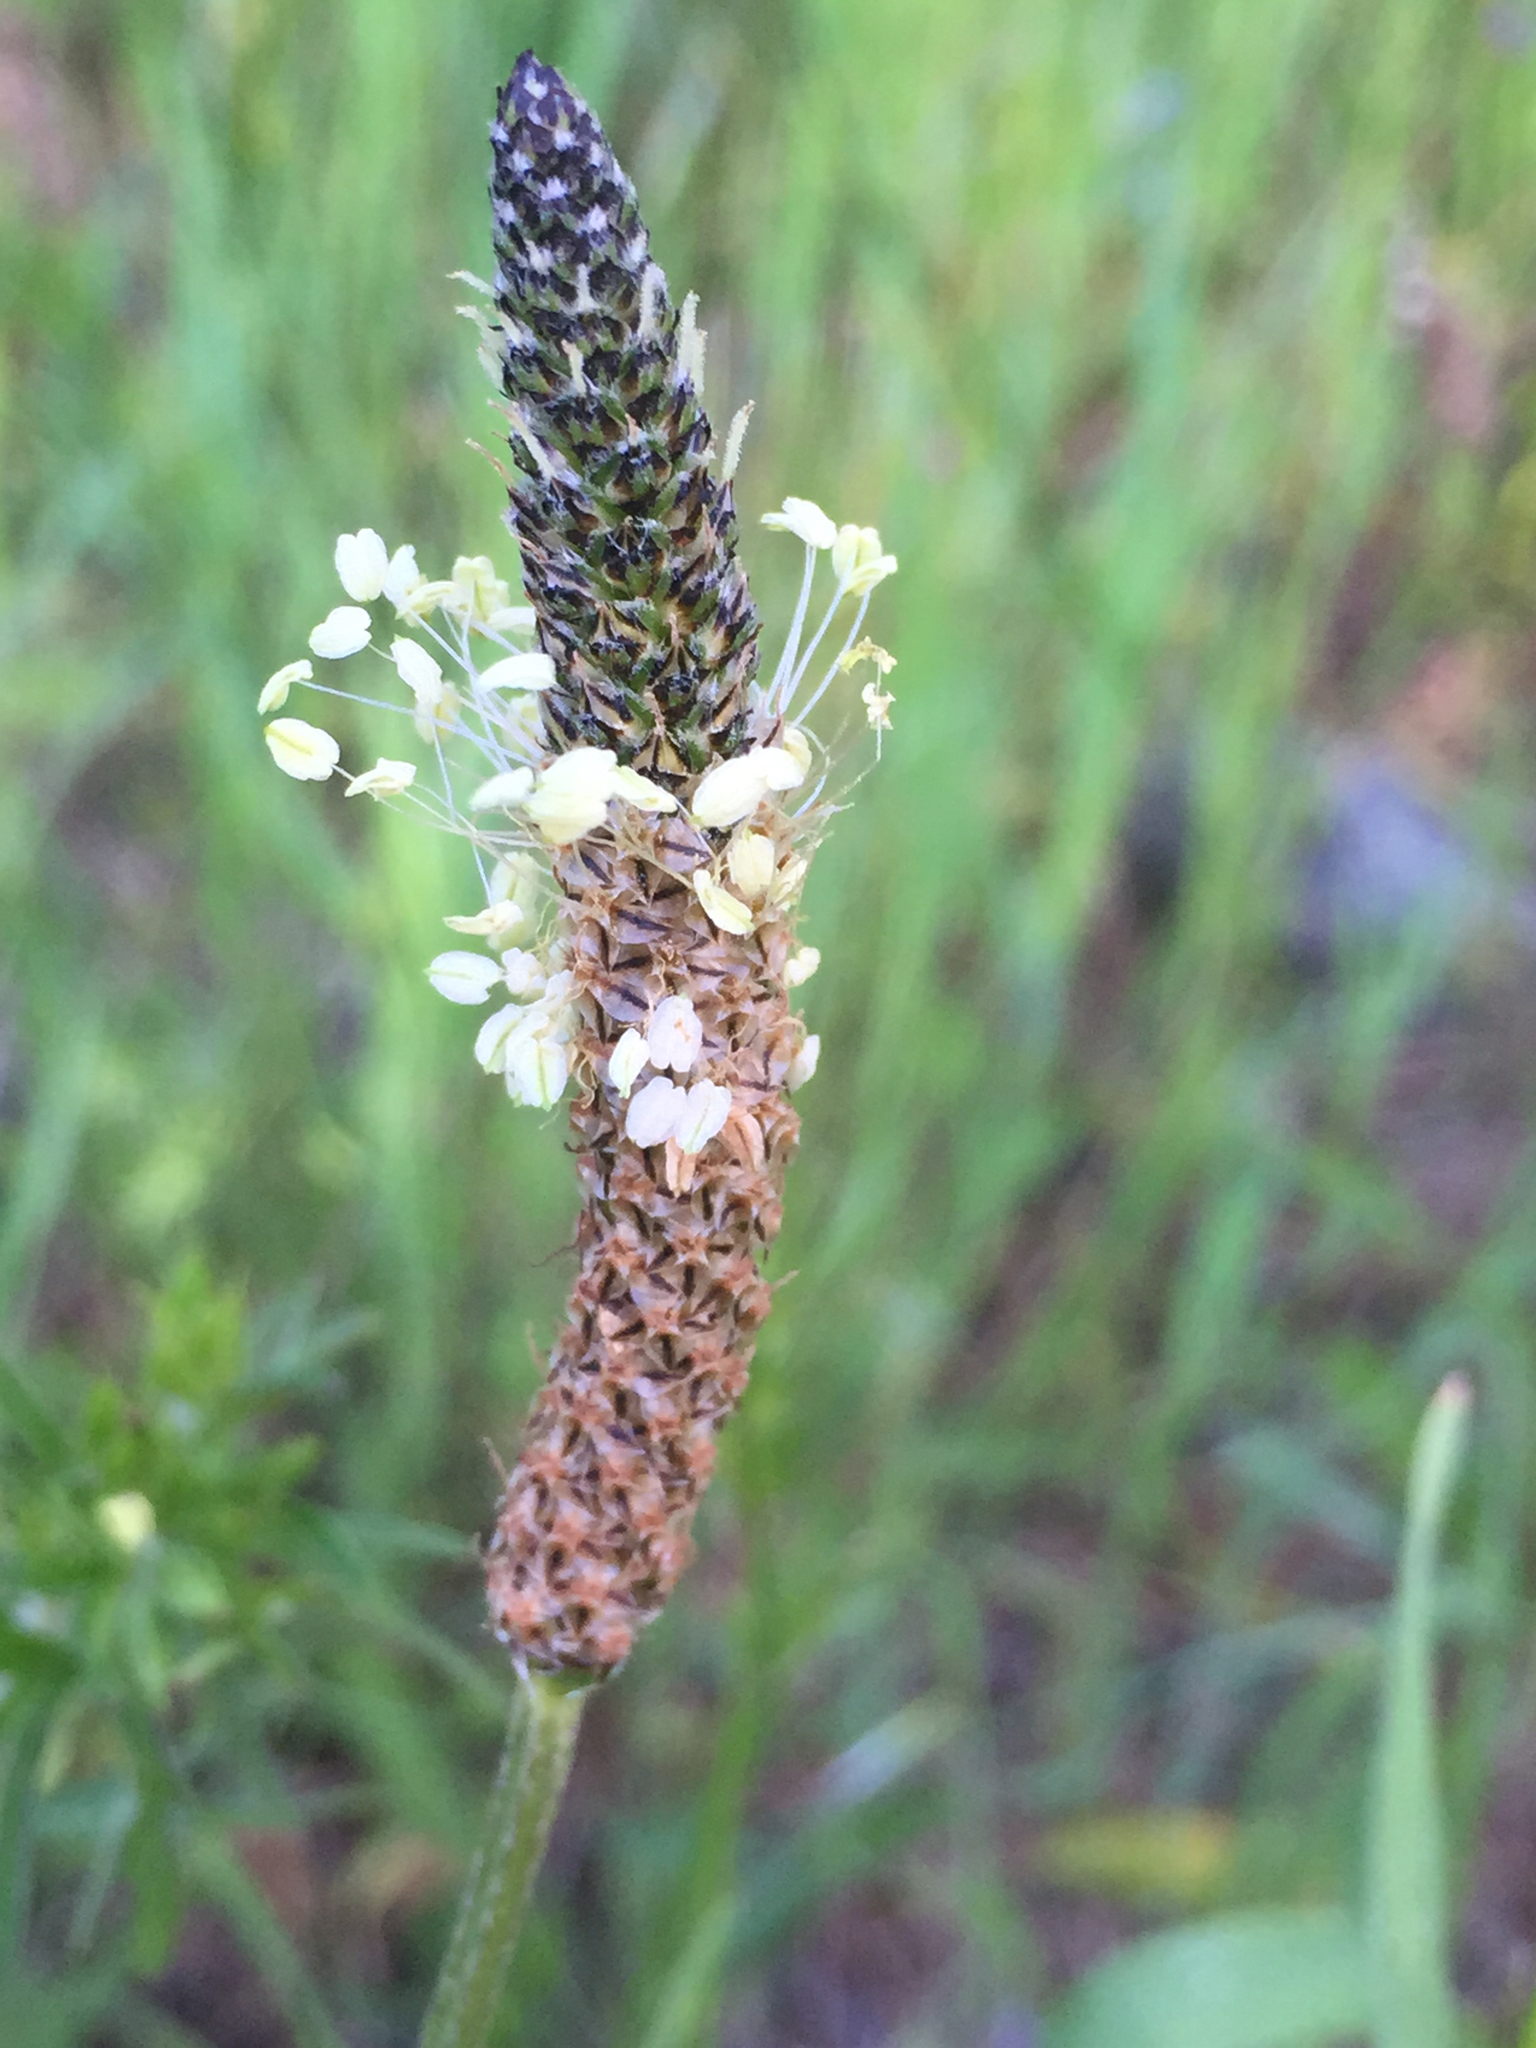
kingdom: Plantae
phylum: Tracheophyta
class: Magnoliopsida
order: Lamiales
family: Plantaginaceae
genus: Plantago
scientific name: Plantago lanceolata
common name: Ribwort plantain
